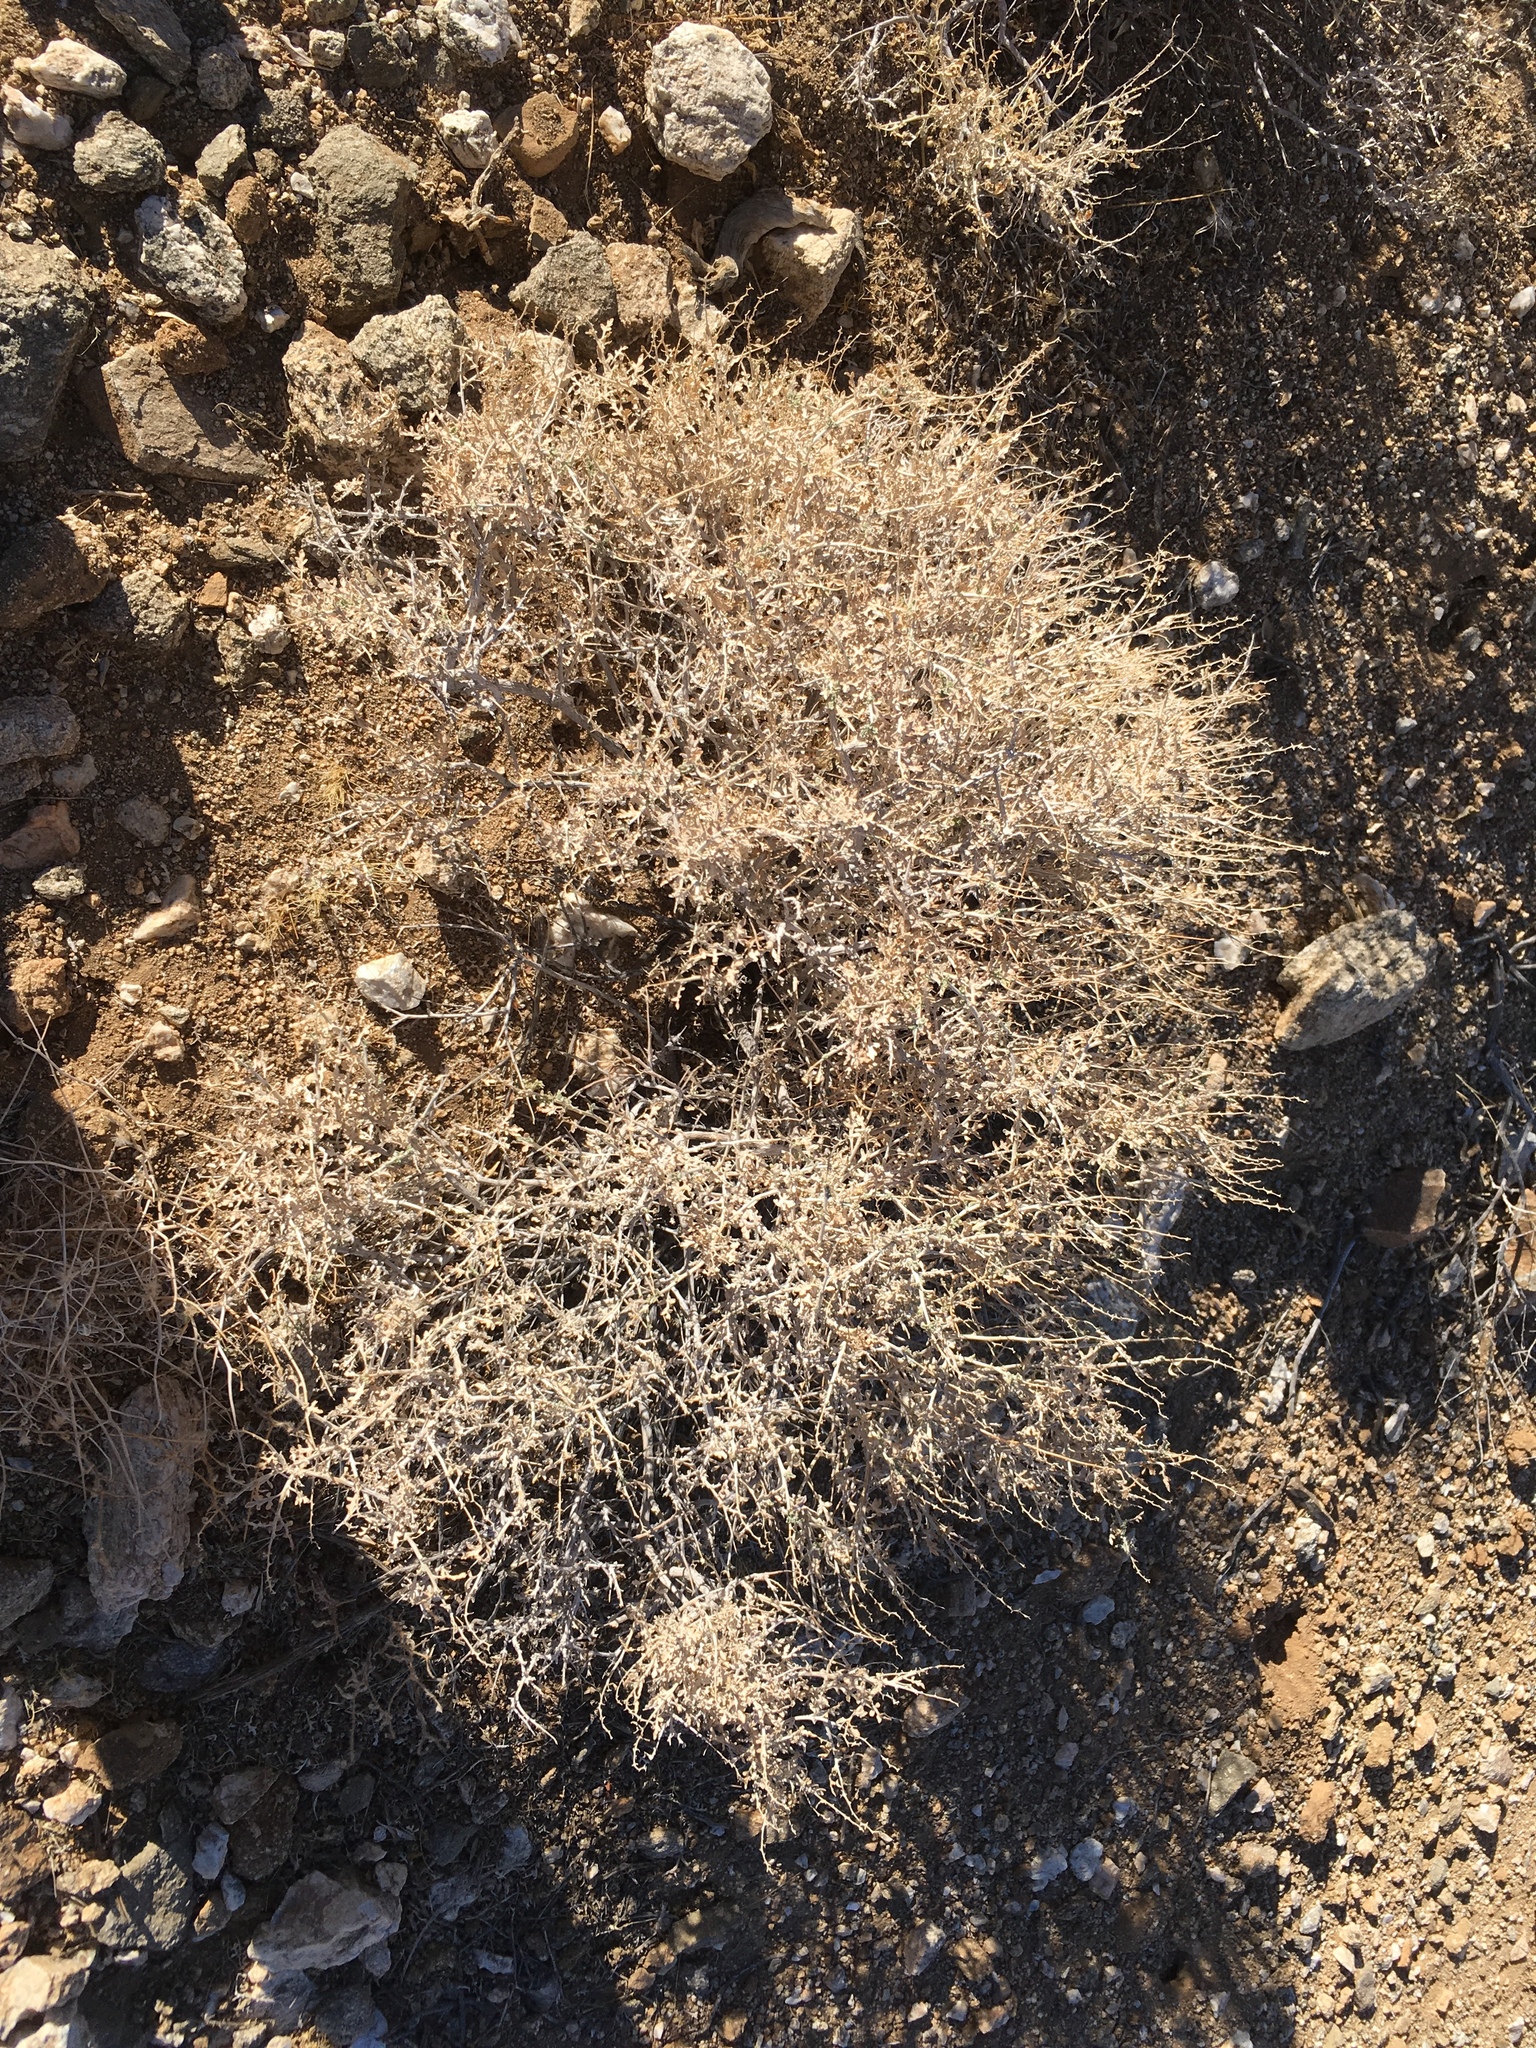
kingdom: Plantae
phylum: Tracheophyta
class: Magnoliopsida
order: Asterales
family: Asteraceae
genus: Ambrosia
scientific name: Ambrosia dumosa
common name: Bur-sage
